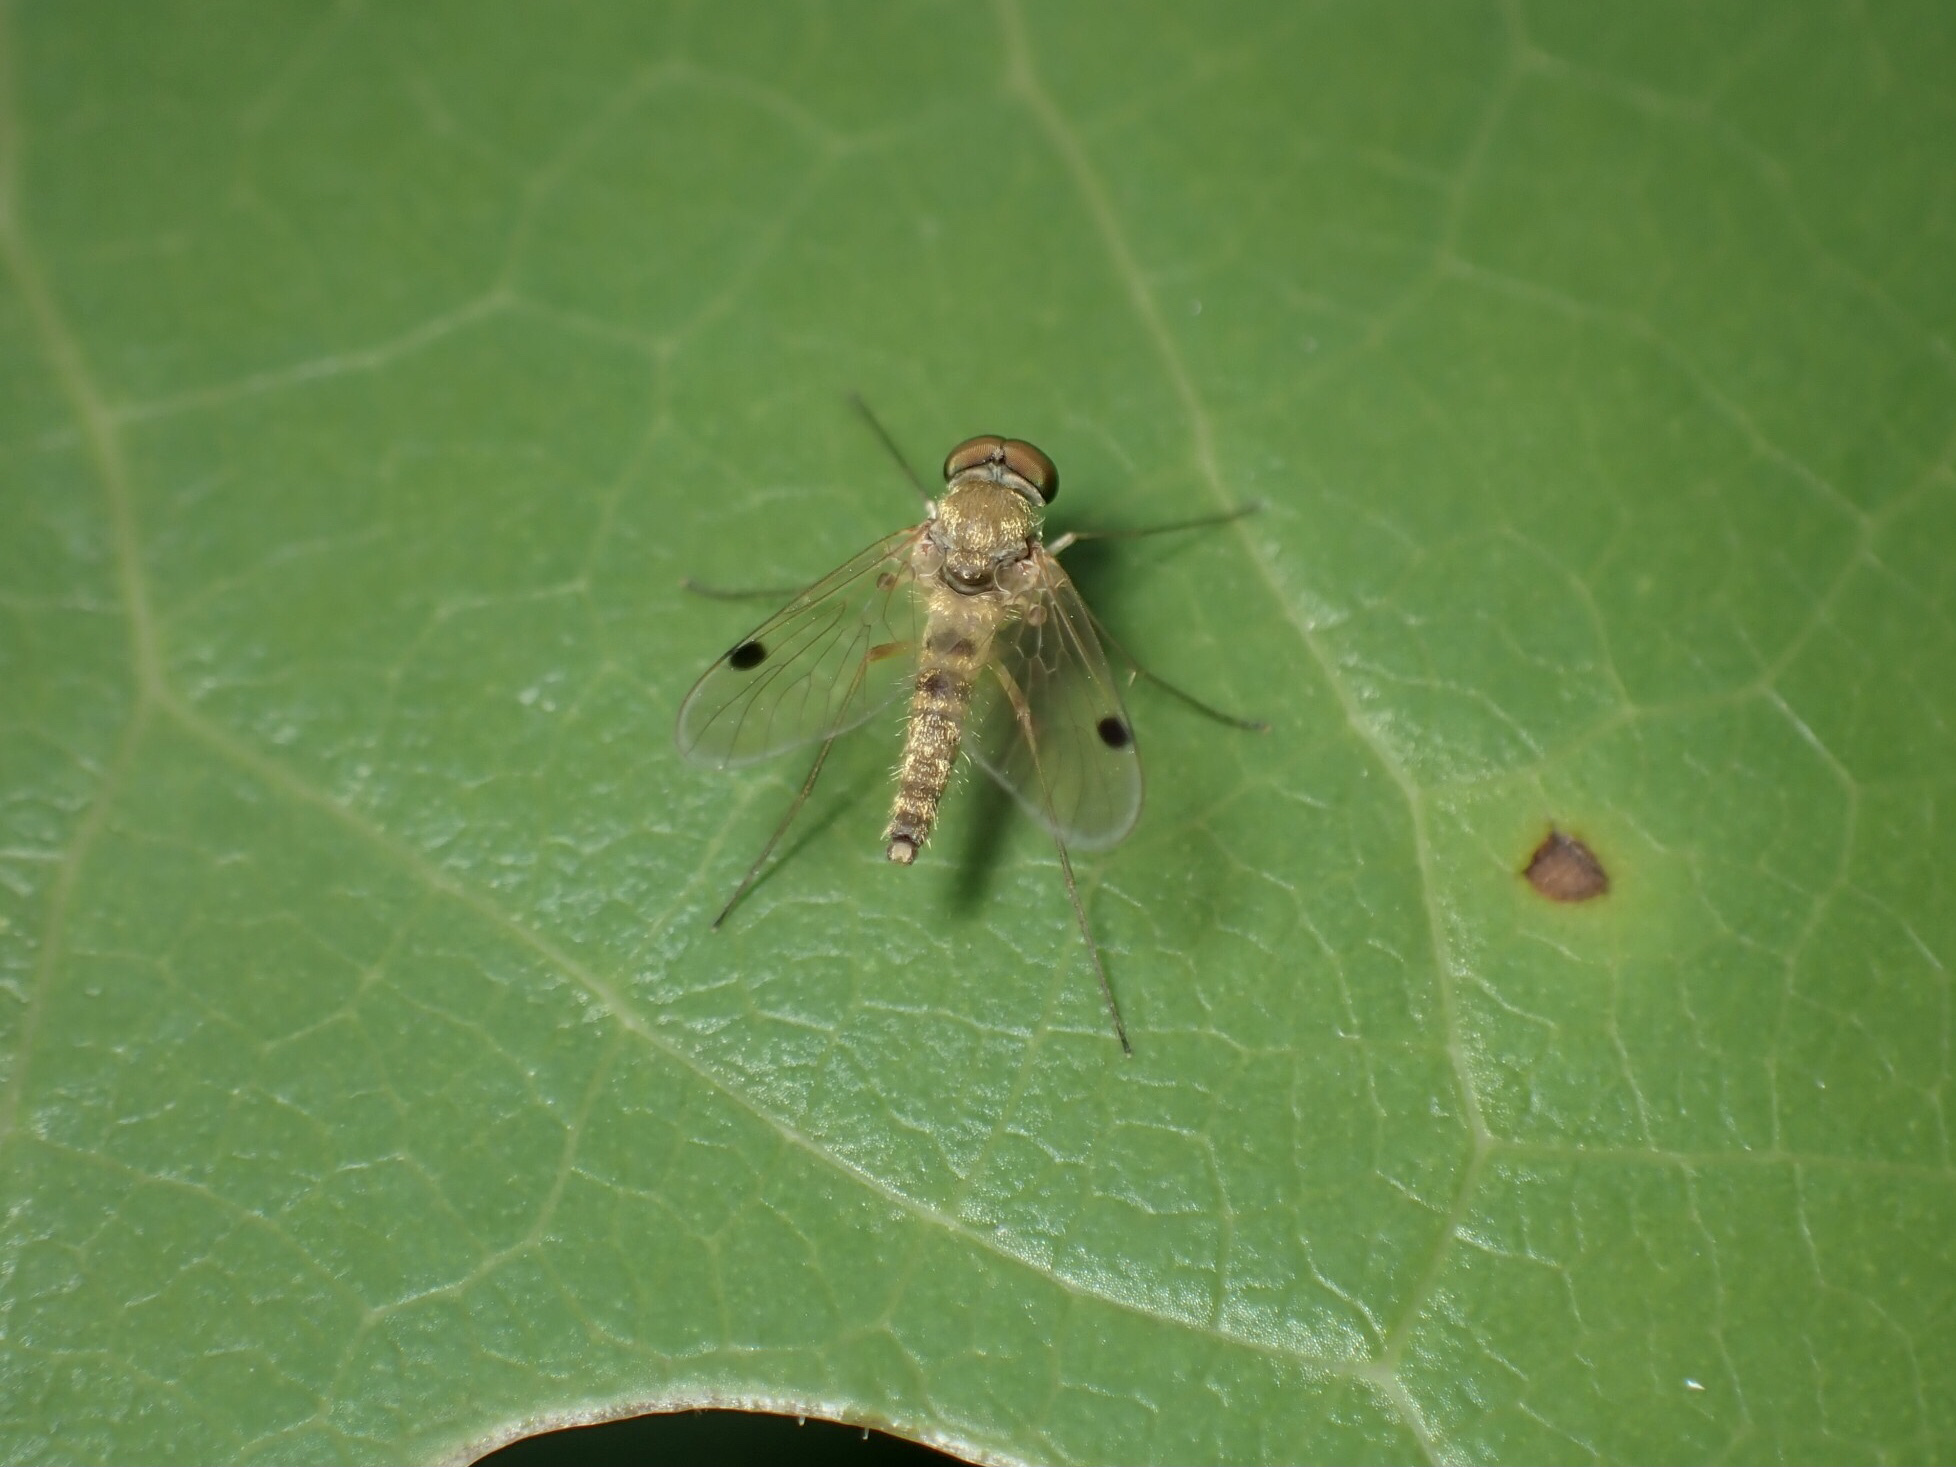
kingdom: Animalia
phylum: Arthropoda
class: Insecta
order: Diptera
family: Rhagionidae
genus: Chrysopilus
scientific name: Chrysopilus modestus
